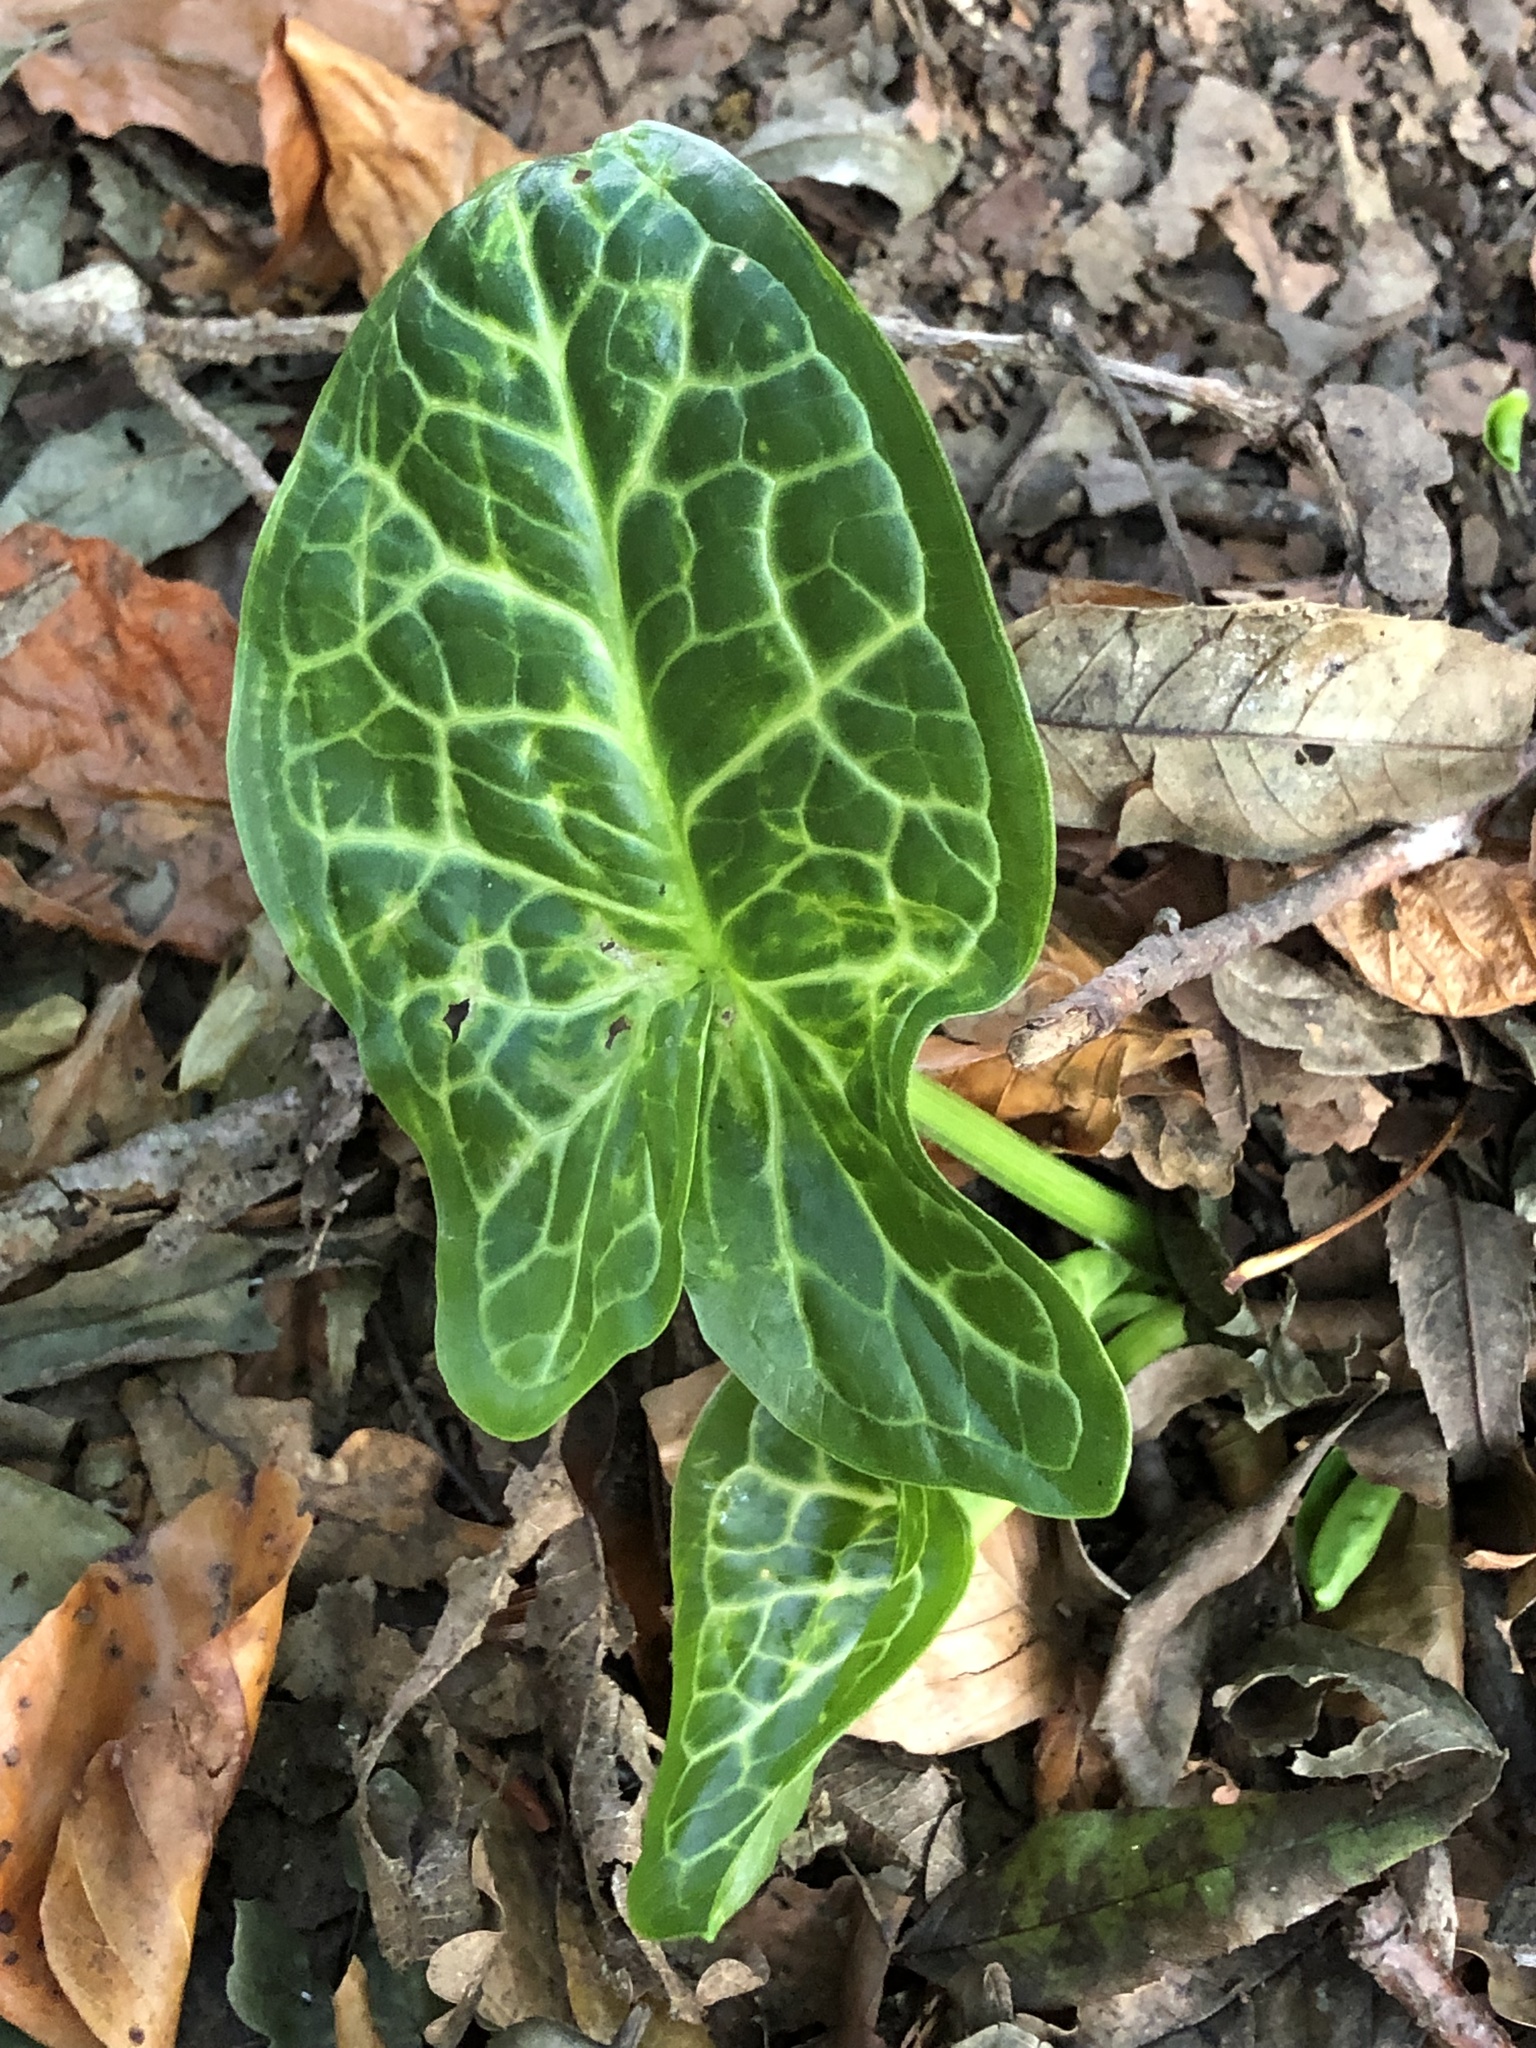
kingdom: Plantae
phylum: Tracheophyta
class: Liliopsida
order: Alismatales
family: Araceae
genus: Arum
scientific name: Arum italicum
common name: Italian lords-and-ladies
